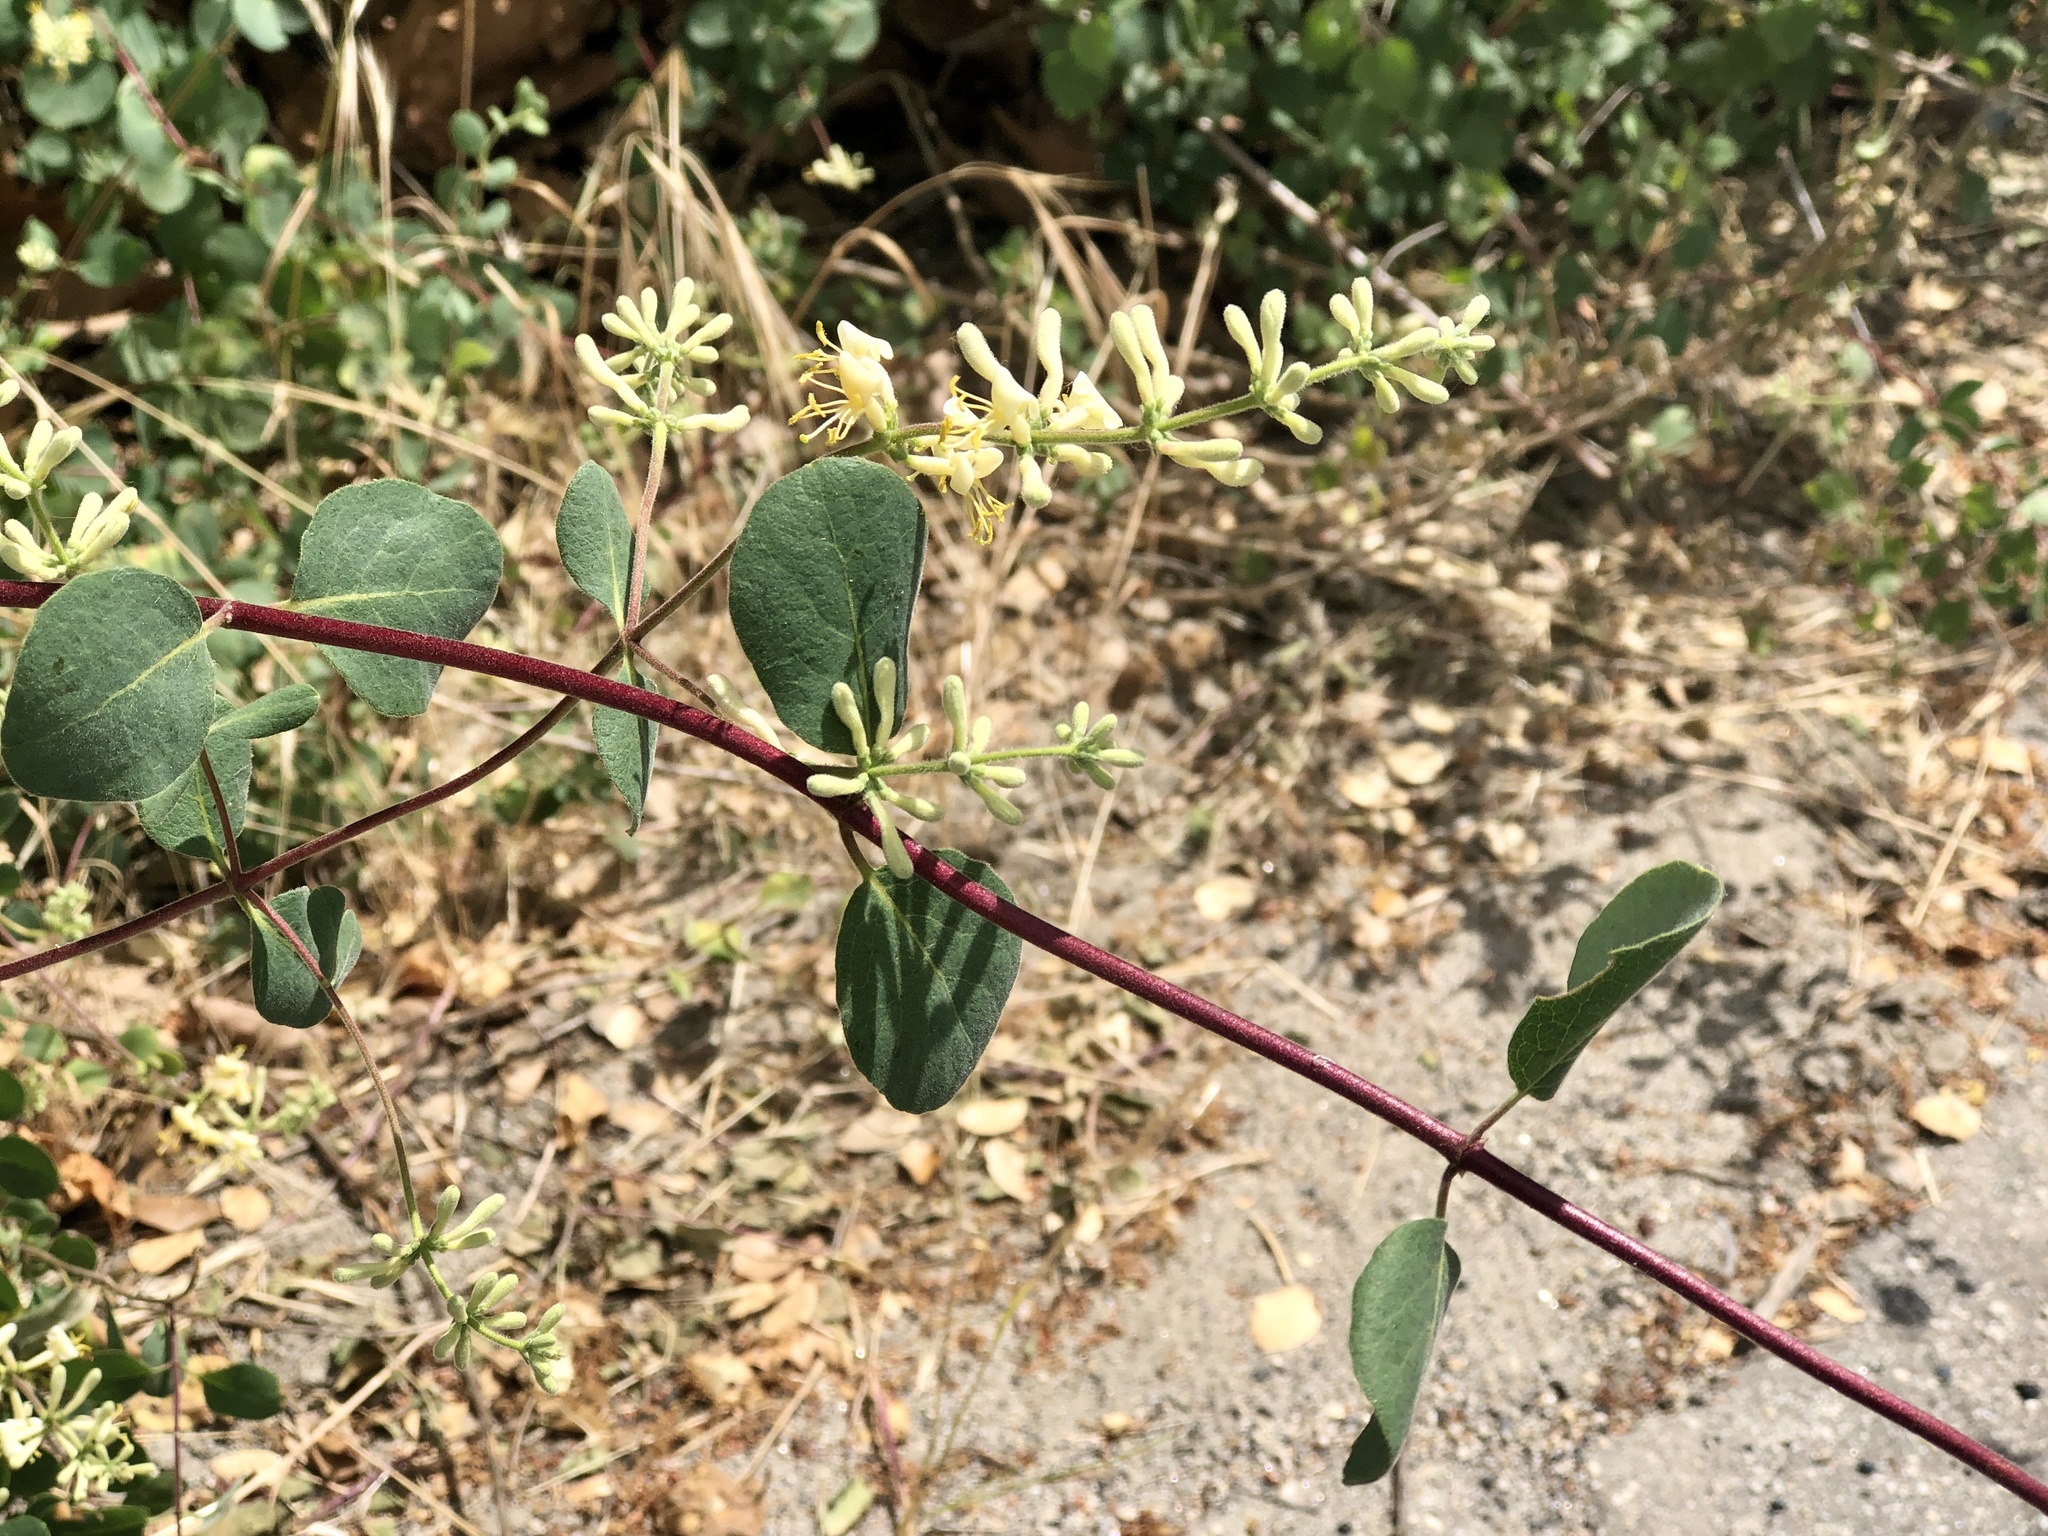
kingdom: Plantae
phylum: Tracheophyta
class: Magnoliopsida
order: Dipsacales
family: Caprifoliaceae
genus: Lonicera
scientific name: Lonicera subspicata
